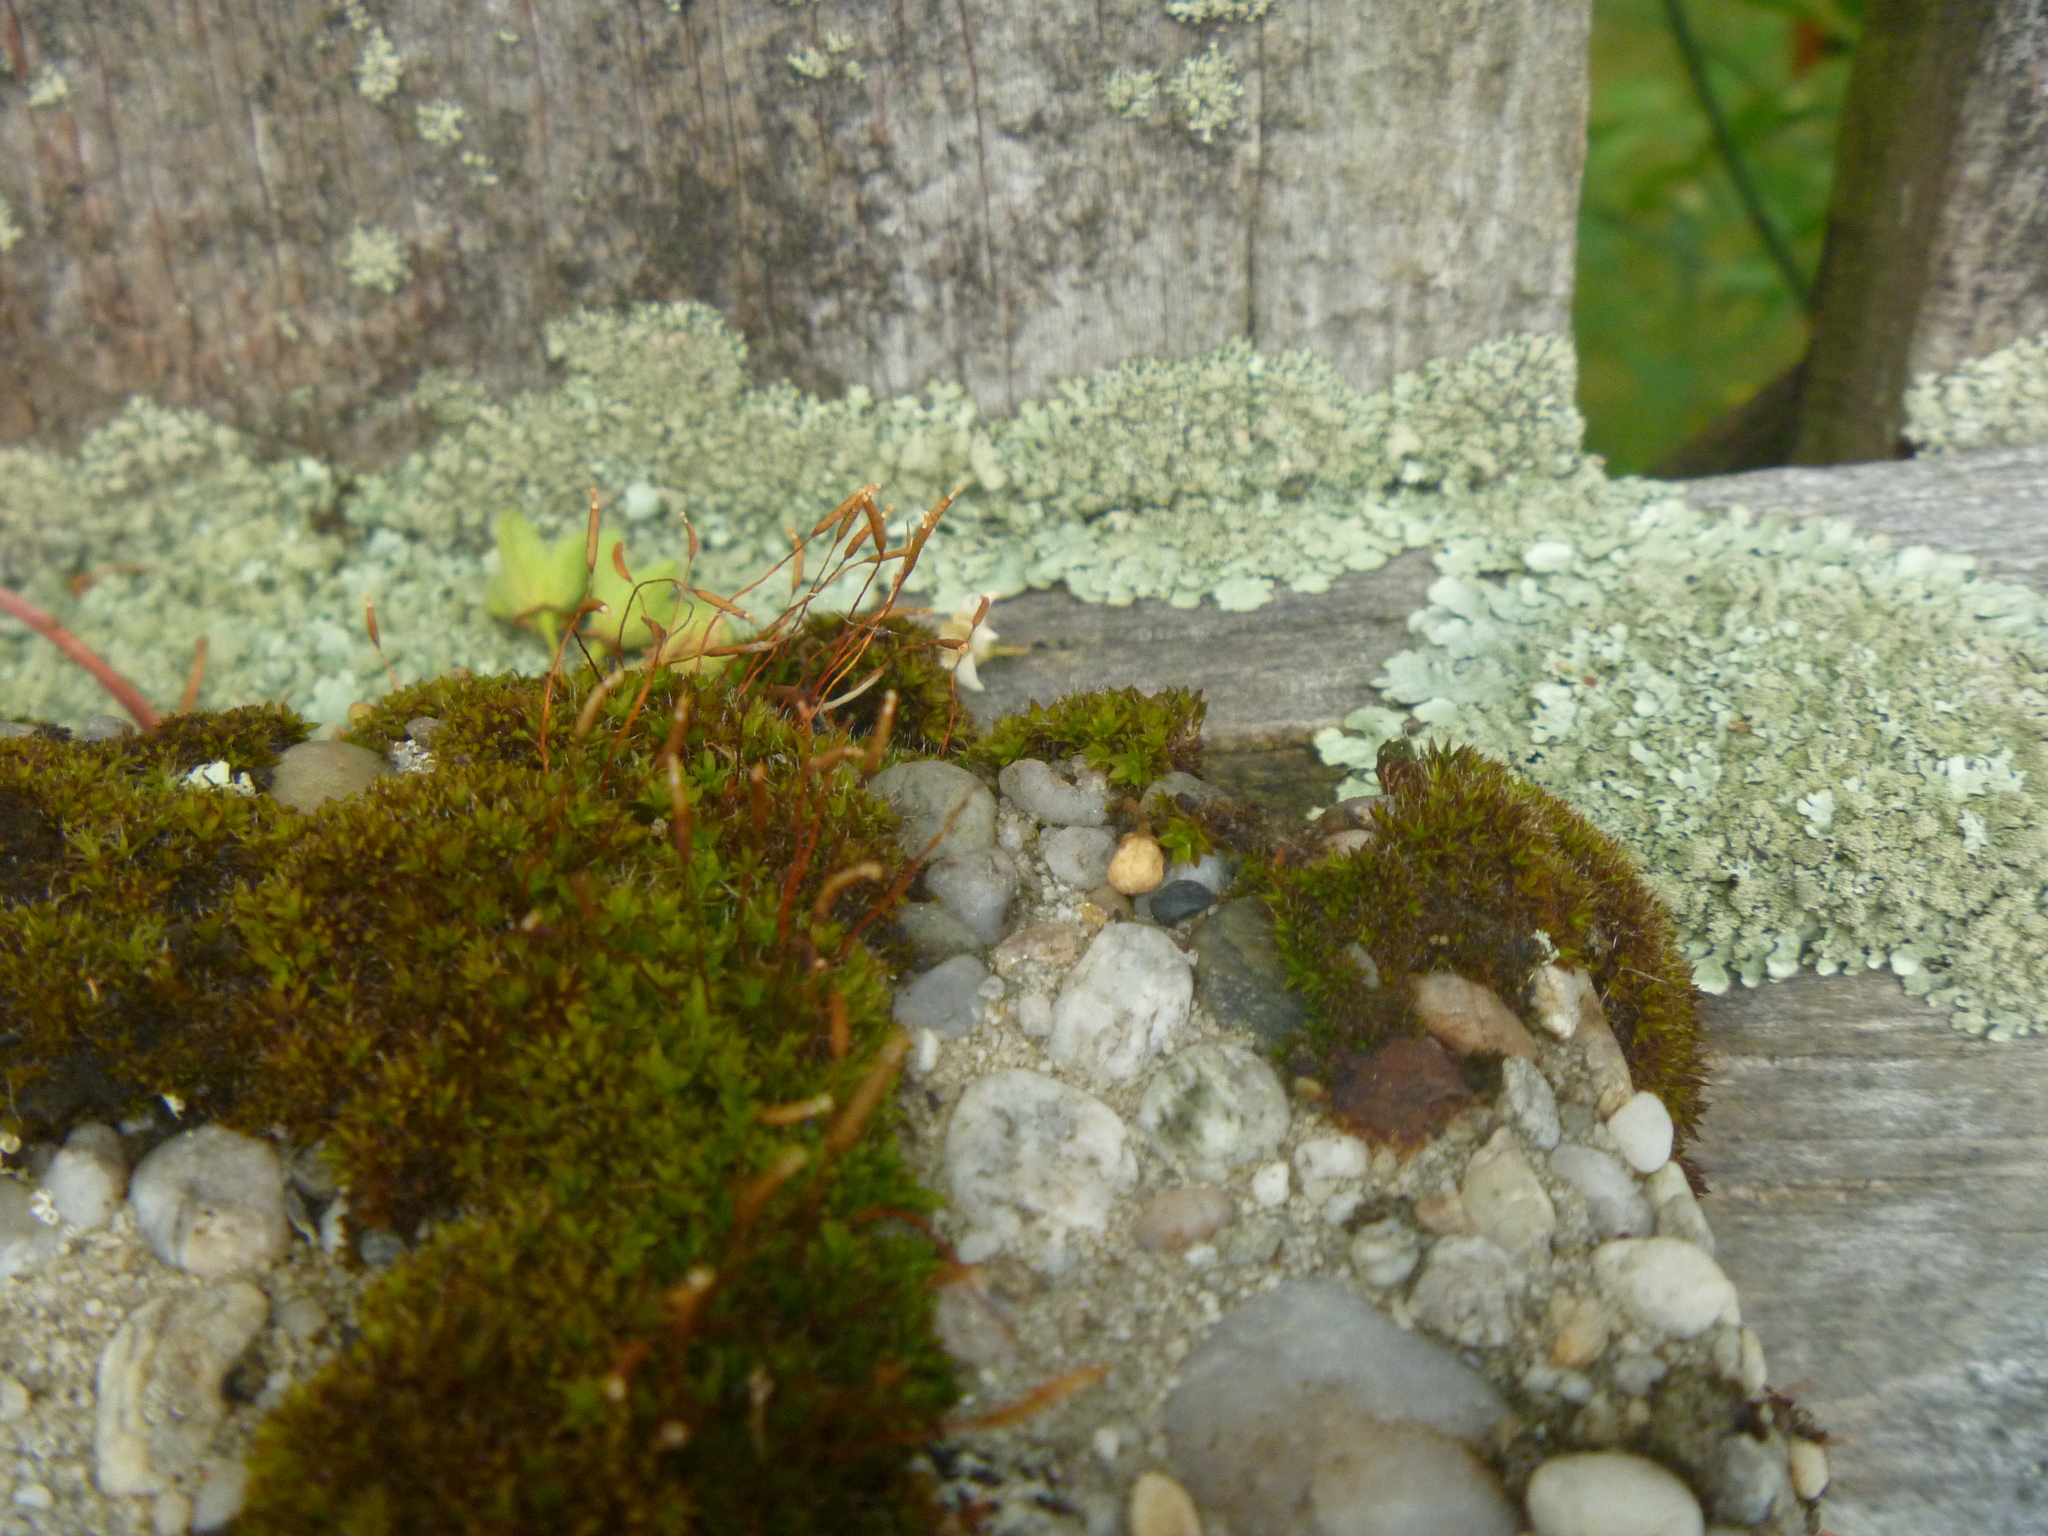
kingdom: Fungi
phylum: Ascomycota
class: Lecanoromycetes
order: Lecanorales
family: Parmeliaceae
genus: Flavoparmelia
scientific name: Flavoparmelia caperata
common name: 40-mile per hour lichen
